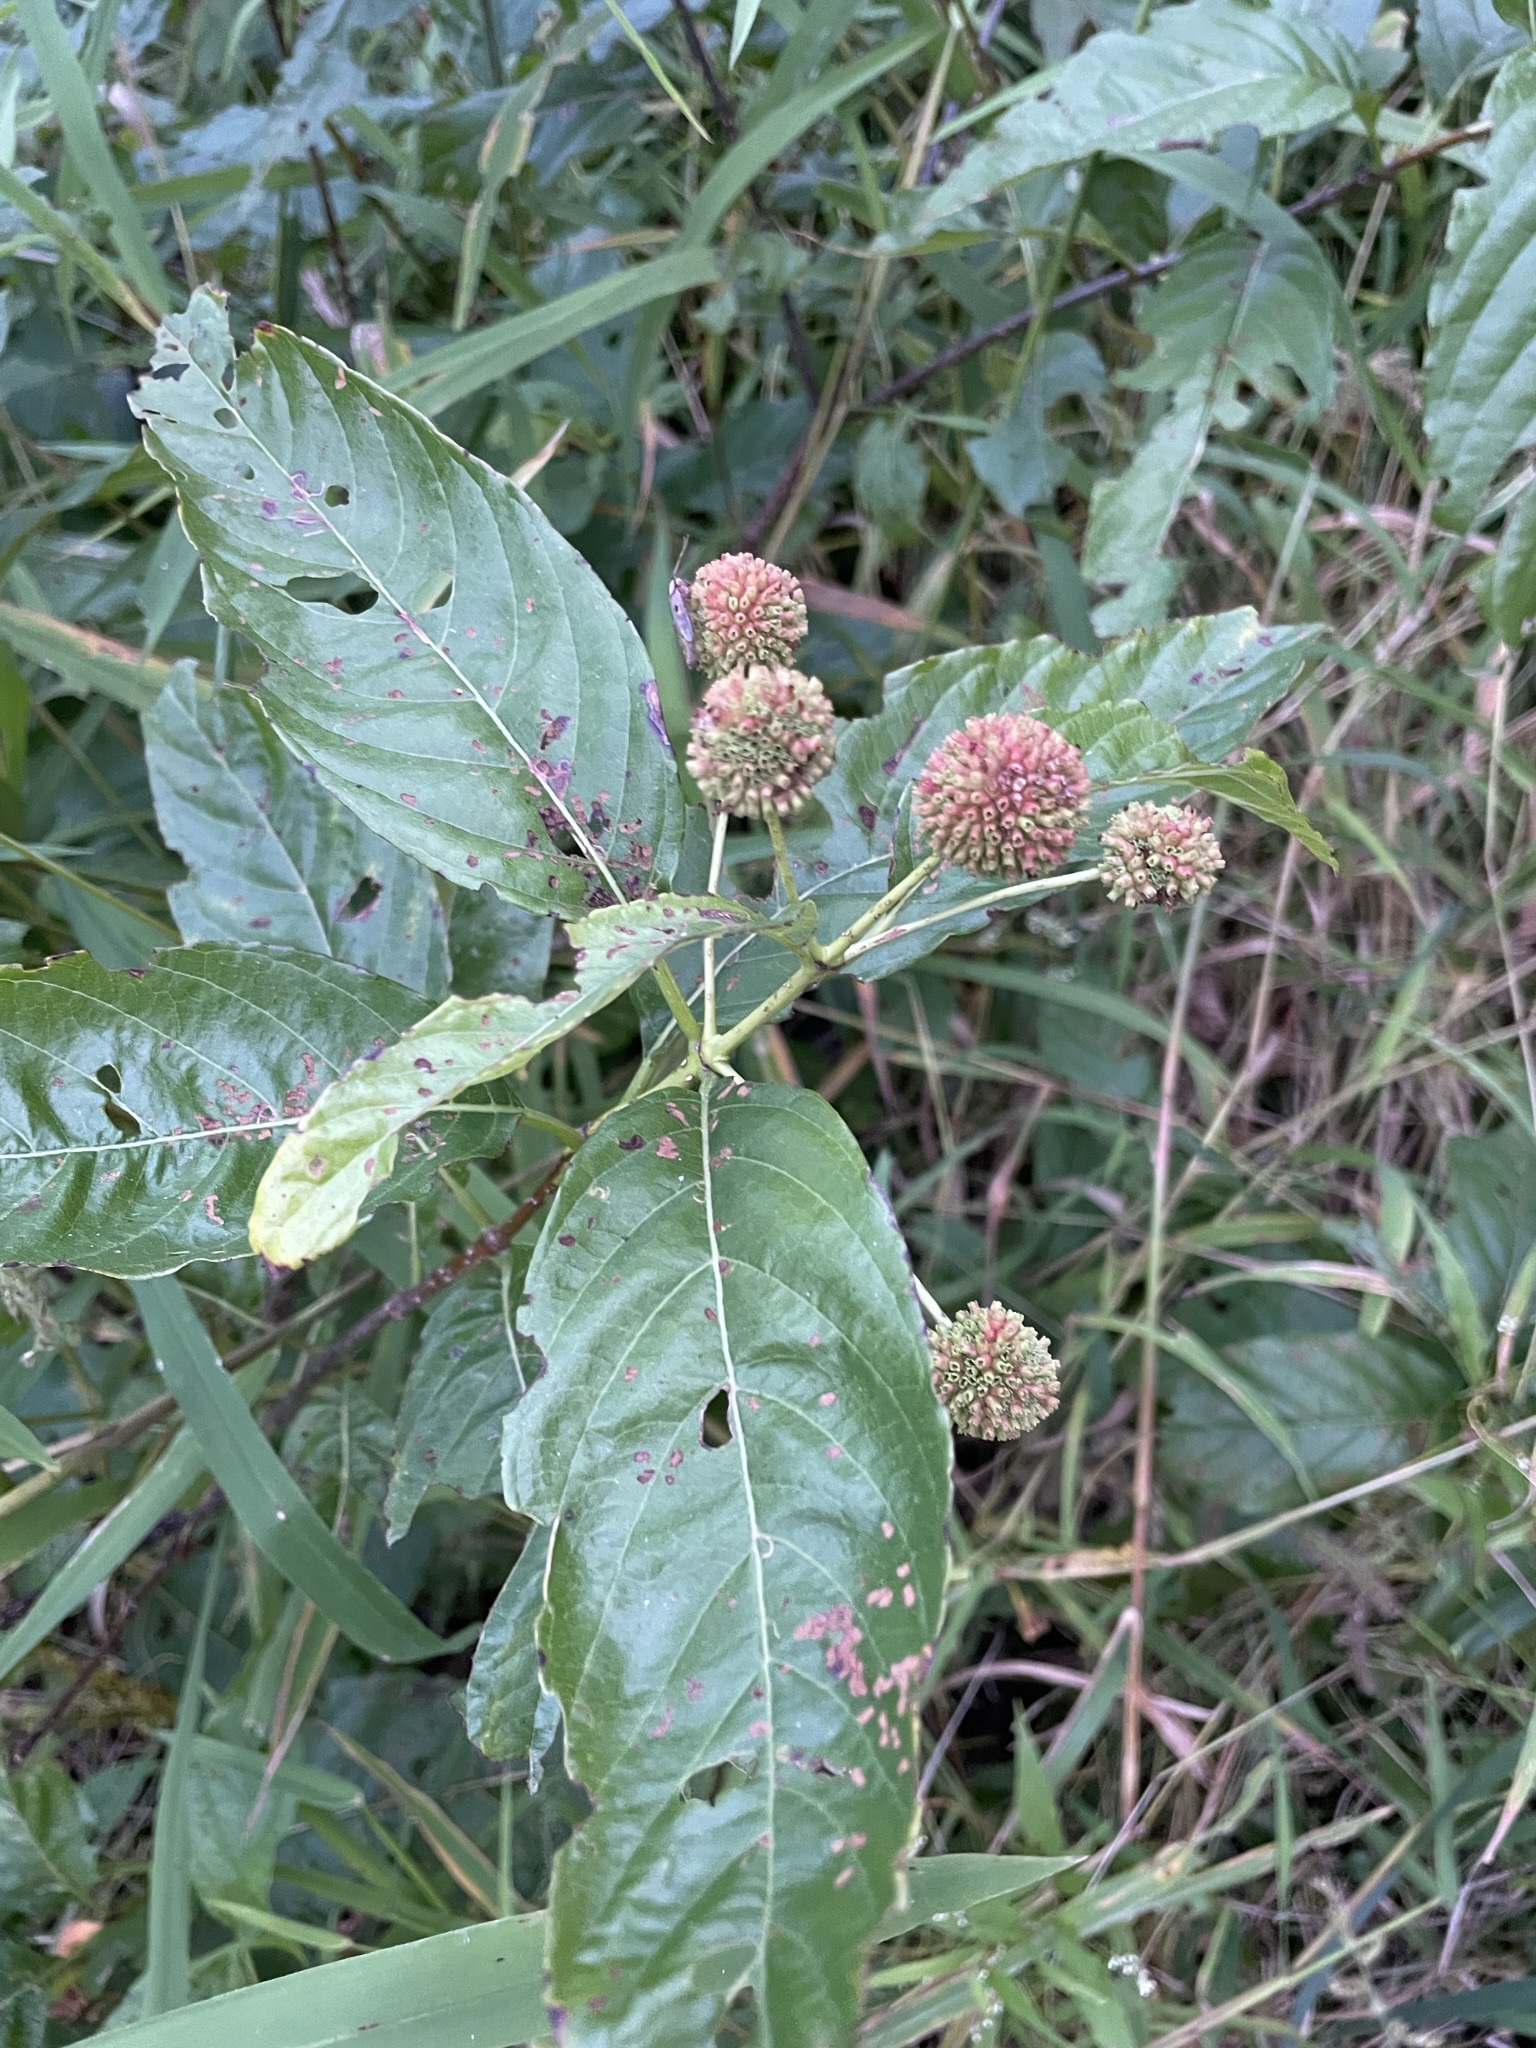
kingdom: Plantae
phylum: Tracheophyta
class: Magnoliopsida
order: Gentianales
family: Rubiaceae
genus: Cephalanthus
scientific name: Cephalanthus occidentalis
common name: Button-willow
